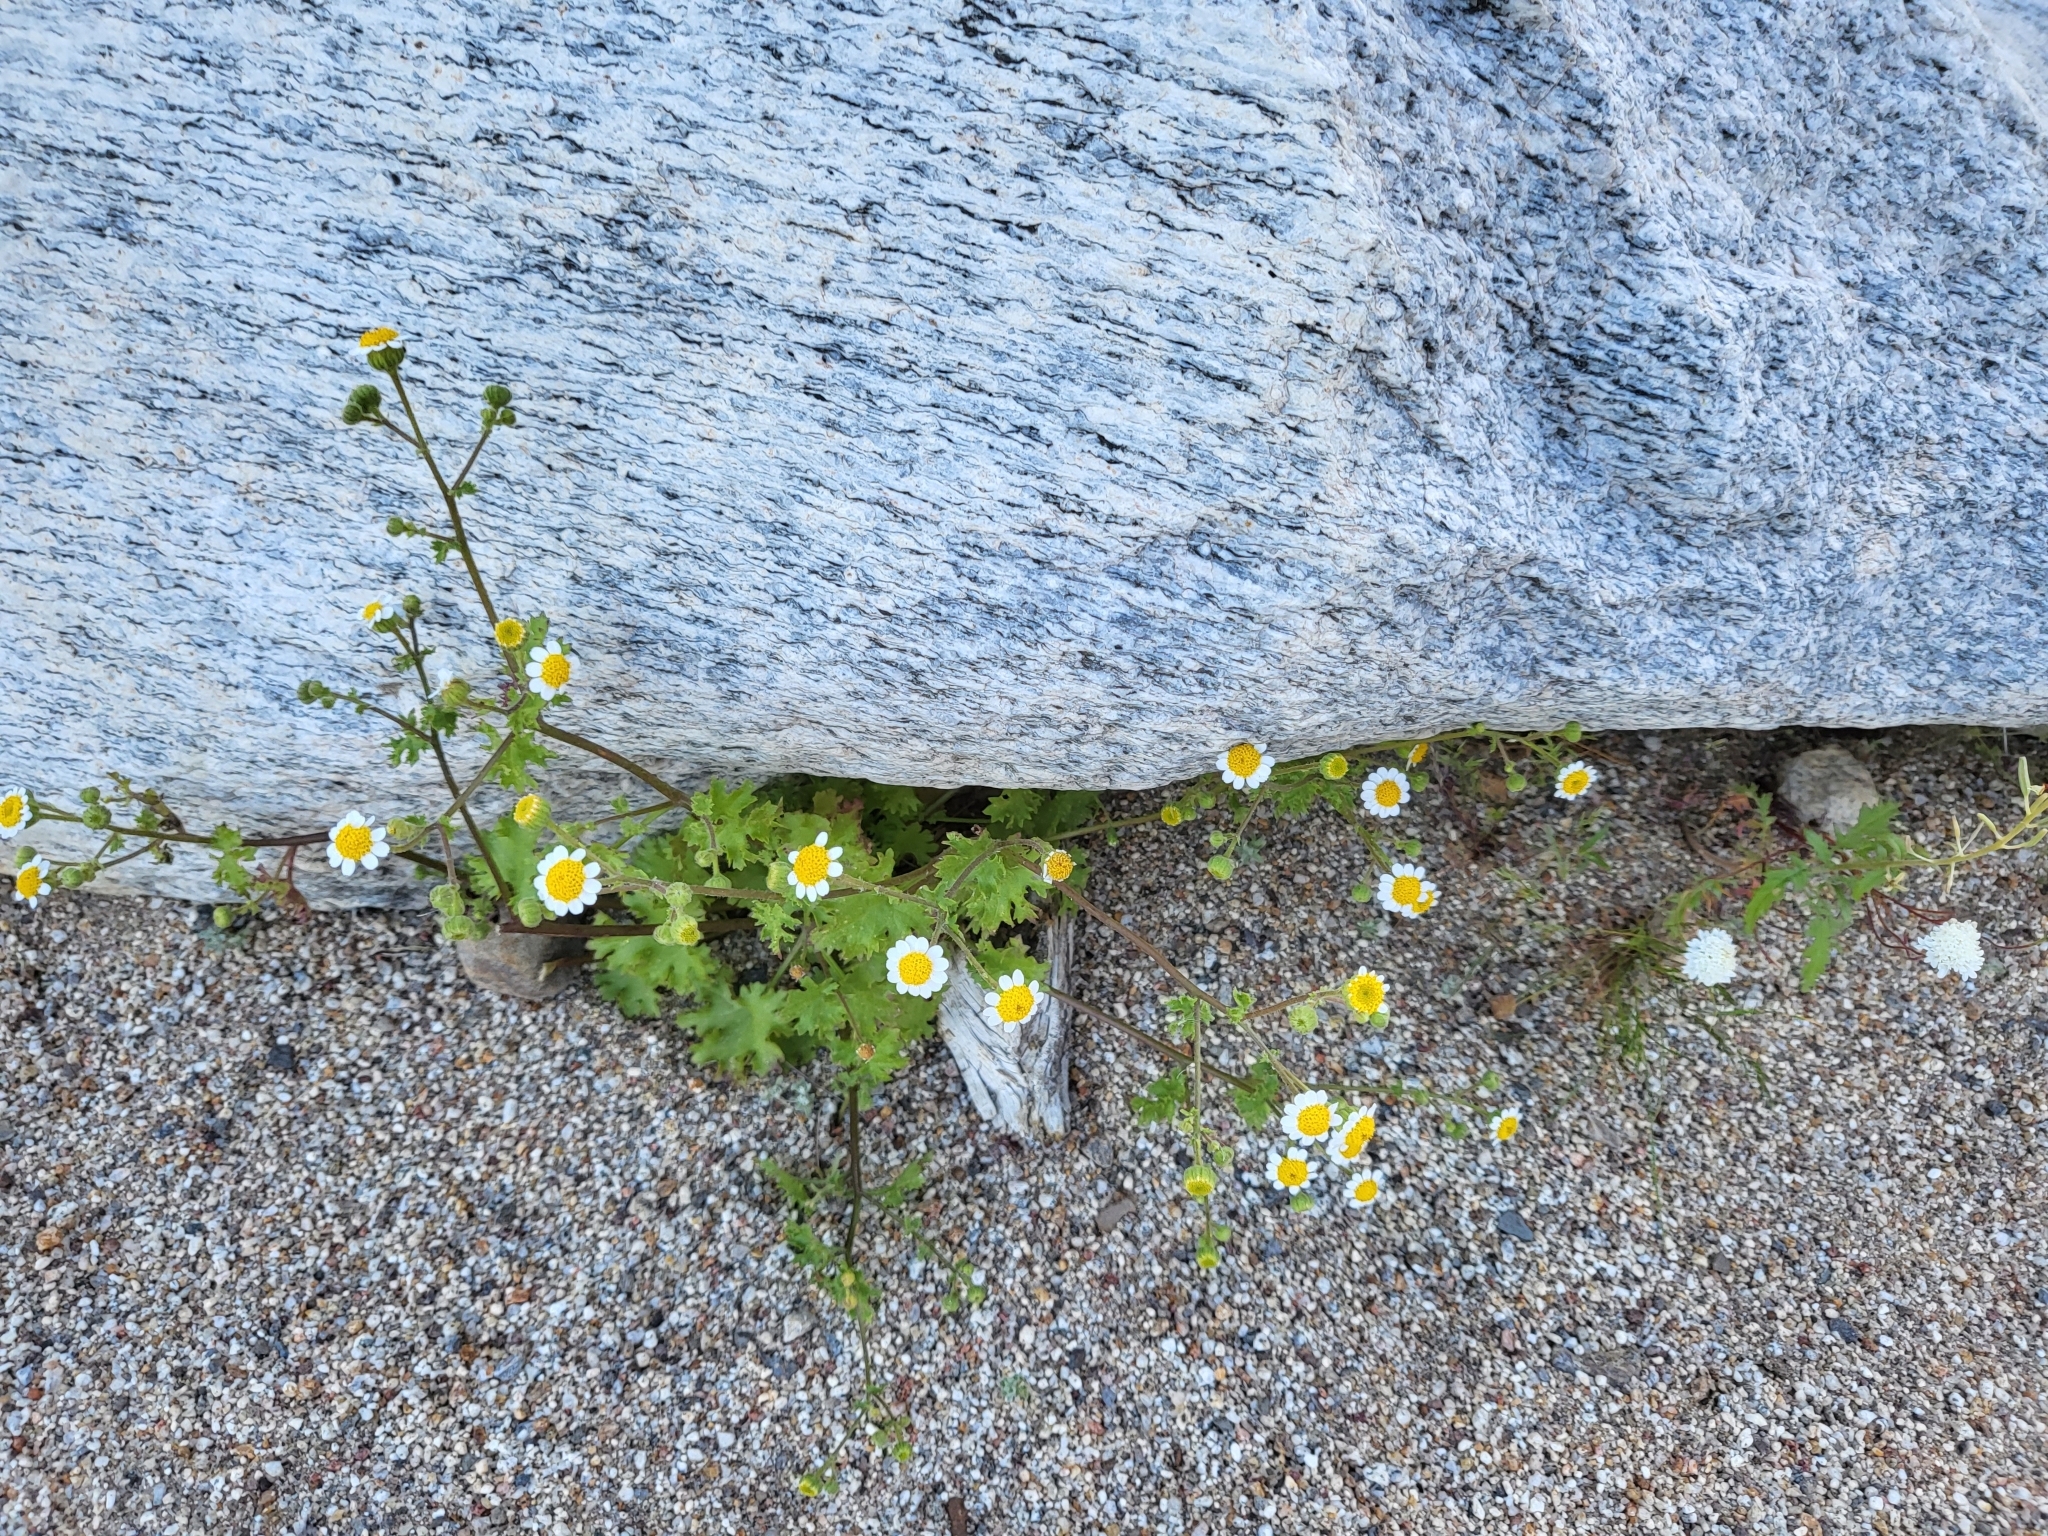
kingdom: Plantae
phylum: Tracheophyta
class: Magnoliopsida
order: Asterales
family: Asteraceae
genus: Laphamia
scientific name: Laphamia emoryi
